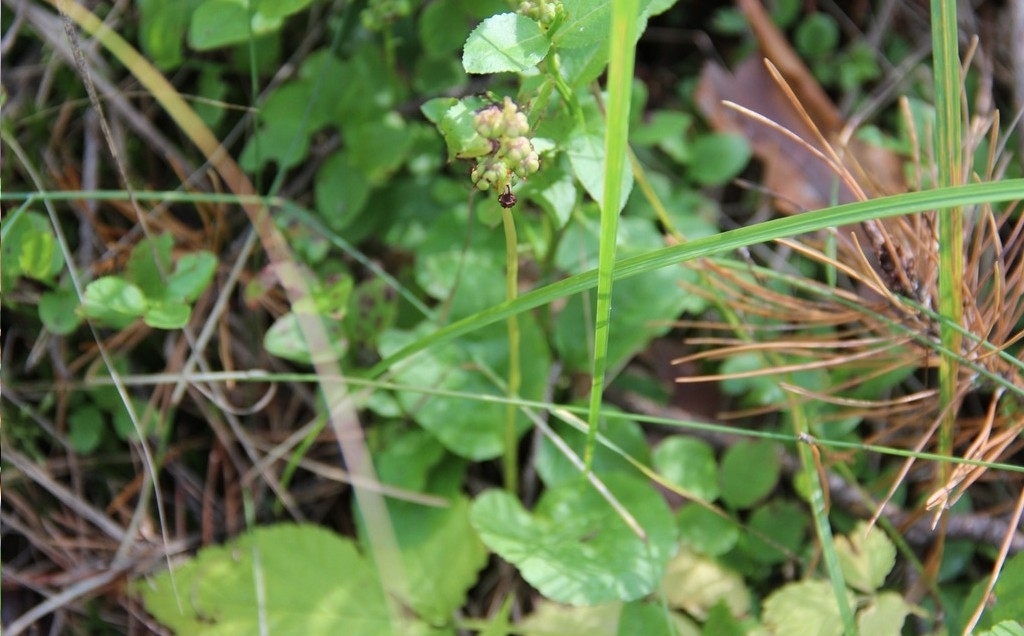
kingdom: Plantae
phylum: Tracheophyta
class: Magnoliopsida
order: Ericales
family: Ericaceae
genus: Orthilia
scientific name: Orthilia secunda
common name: One-sided orthilia
